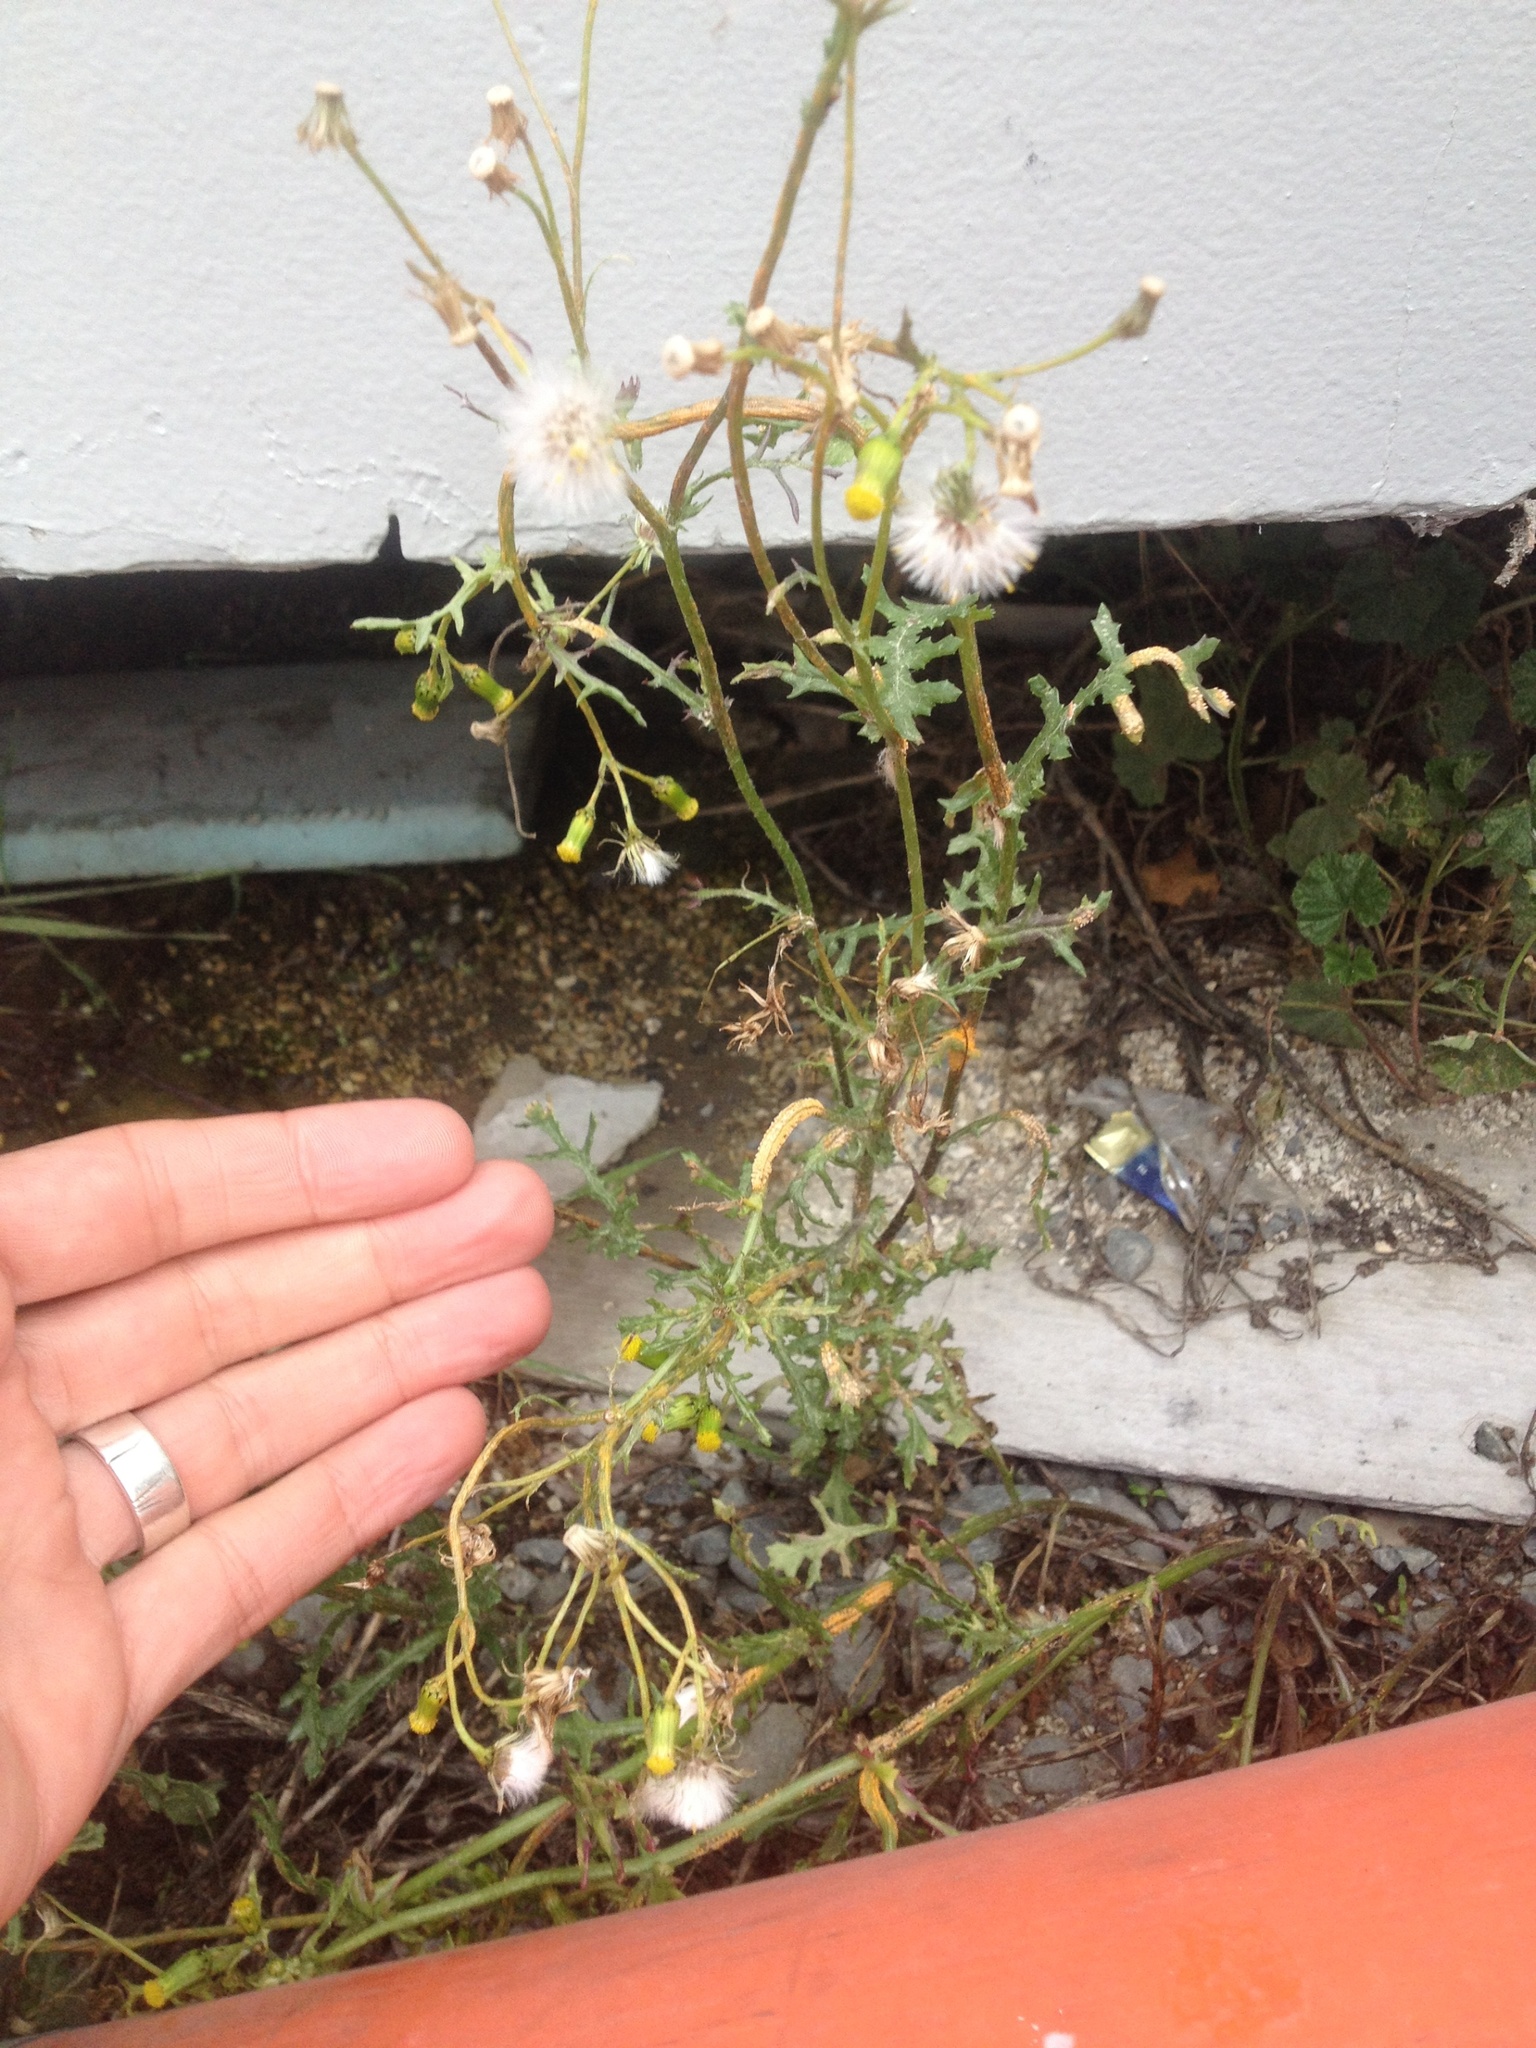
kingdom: Plantae
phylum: Tracheophyta
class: Magnoliopsida
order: Asterales
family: Asteraceae
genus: Senecio
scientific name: Senecio vulgaris
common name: Old-man-in-the-spring
